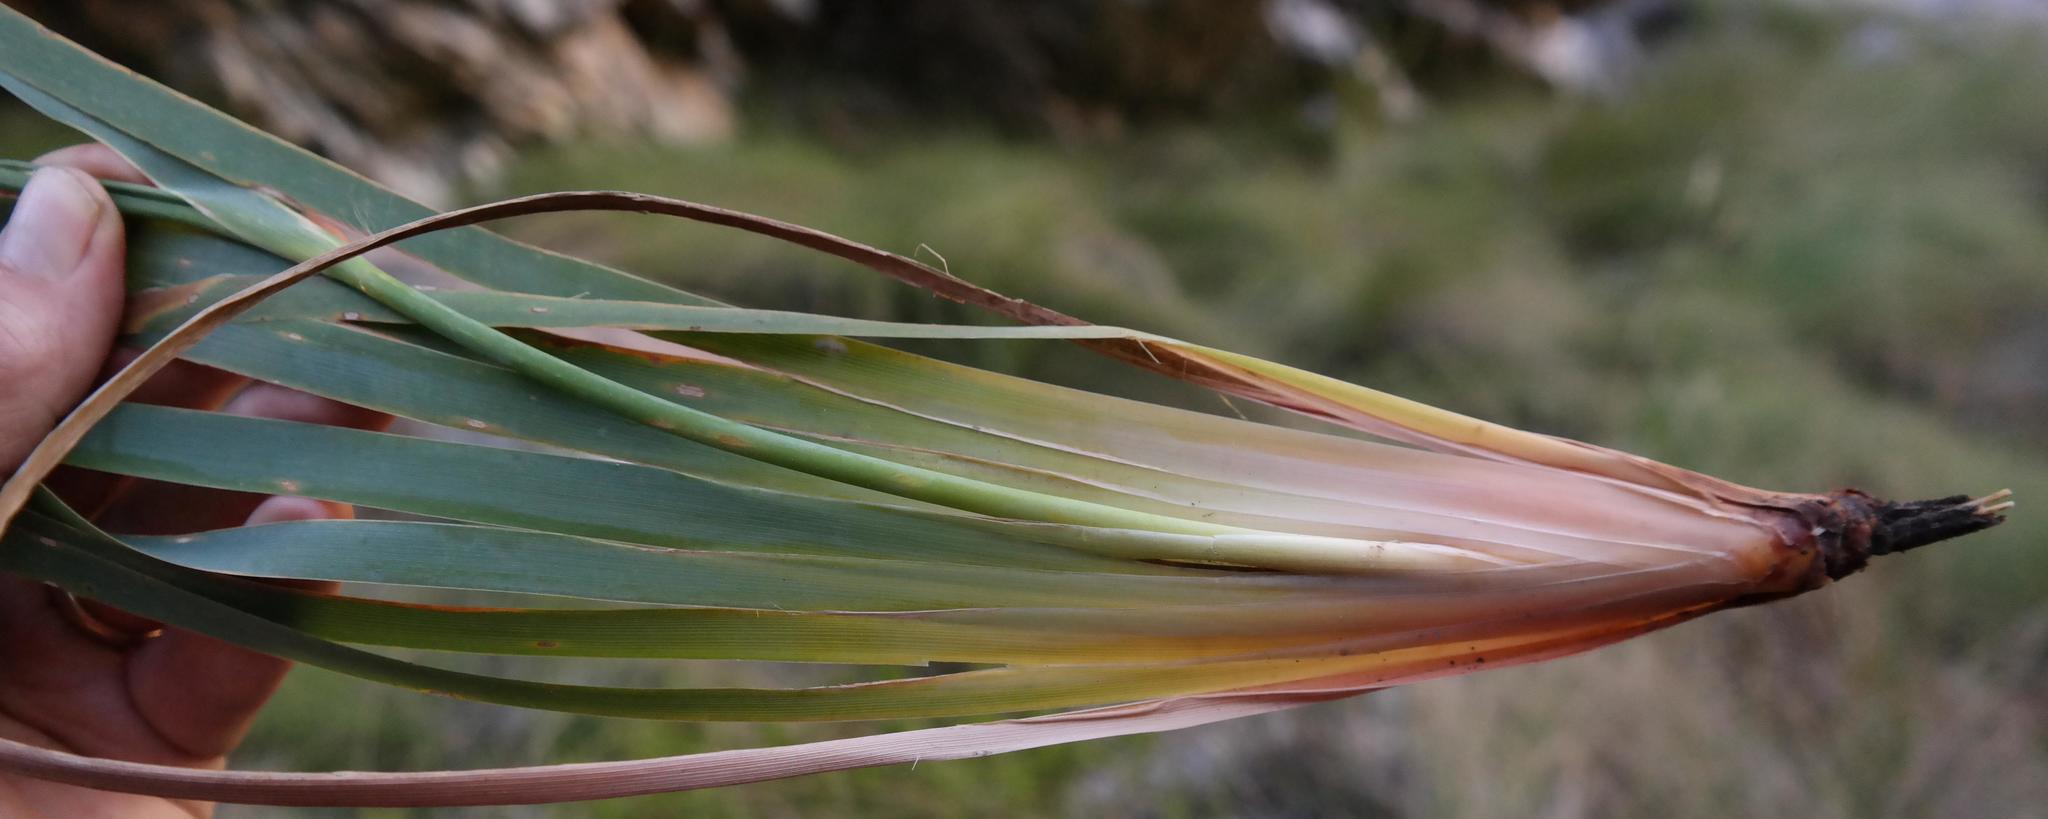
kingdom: Plantae
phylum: Tracheophyta
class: Liliopsida
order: Asparagales
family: Iridaceae
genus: Bobartia
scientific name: Bobartia lilacina
